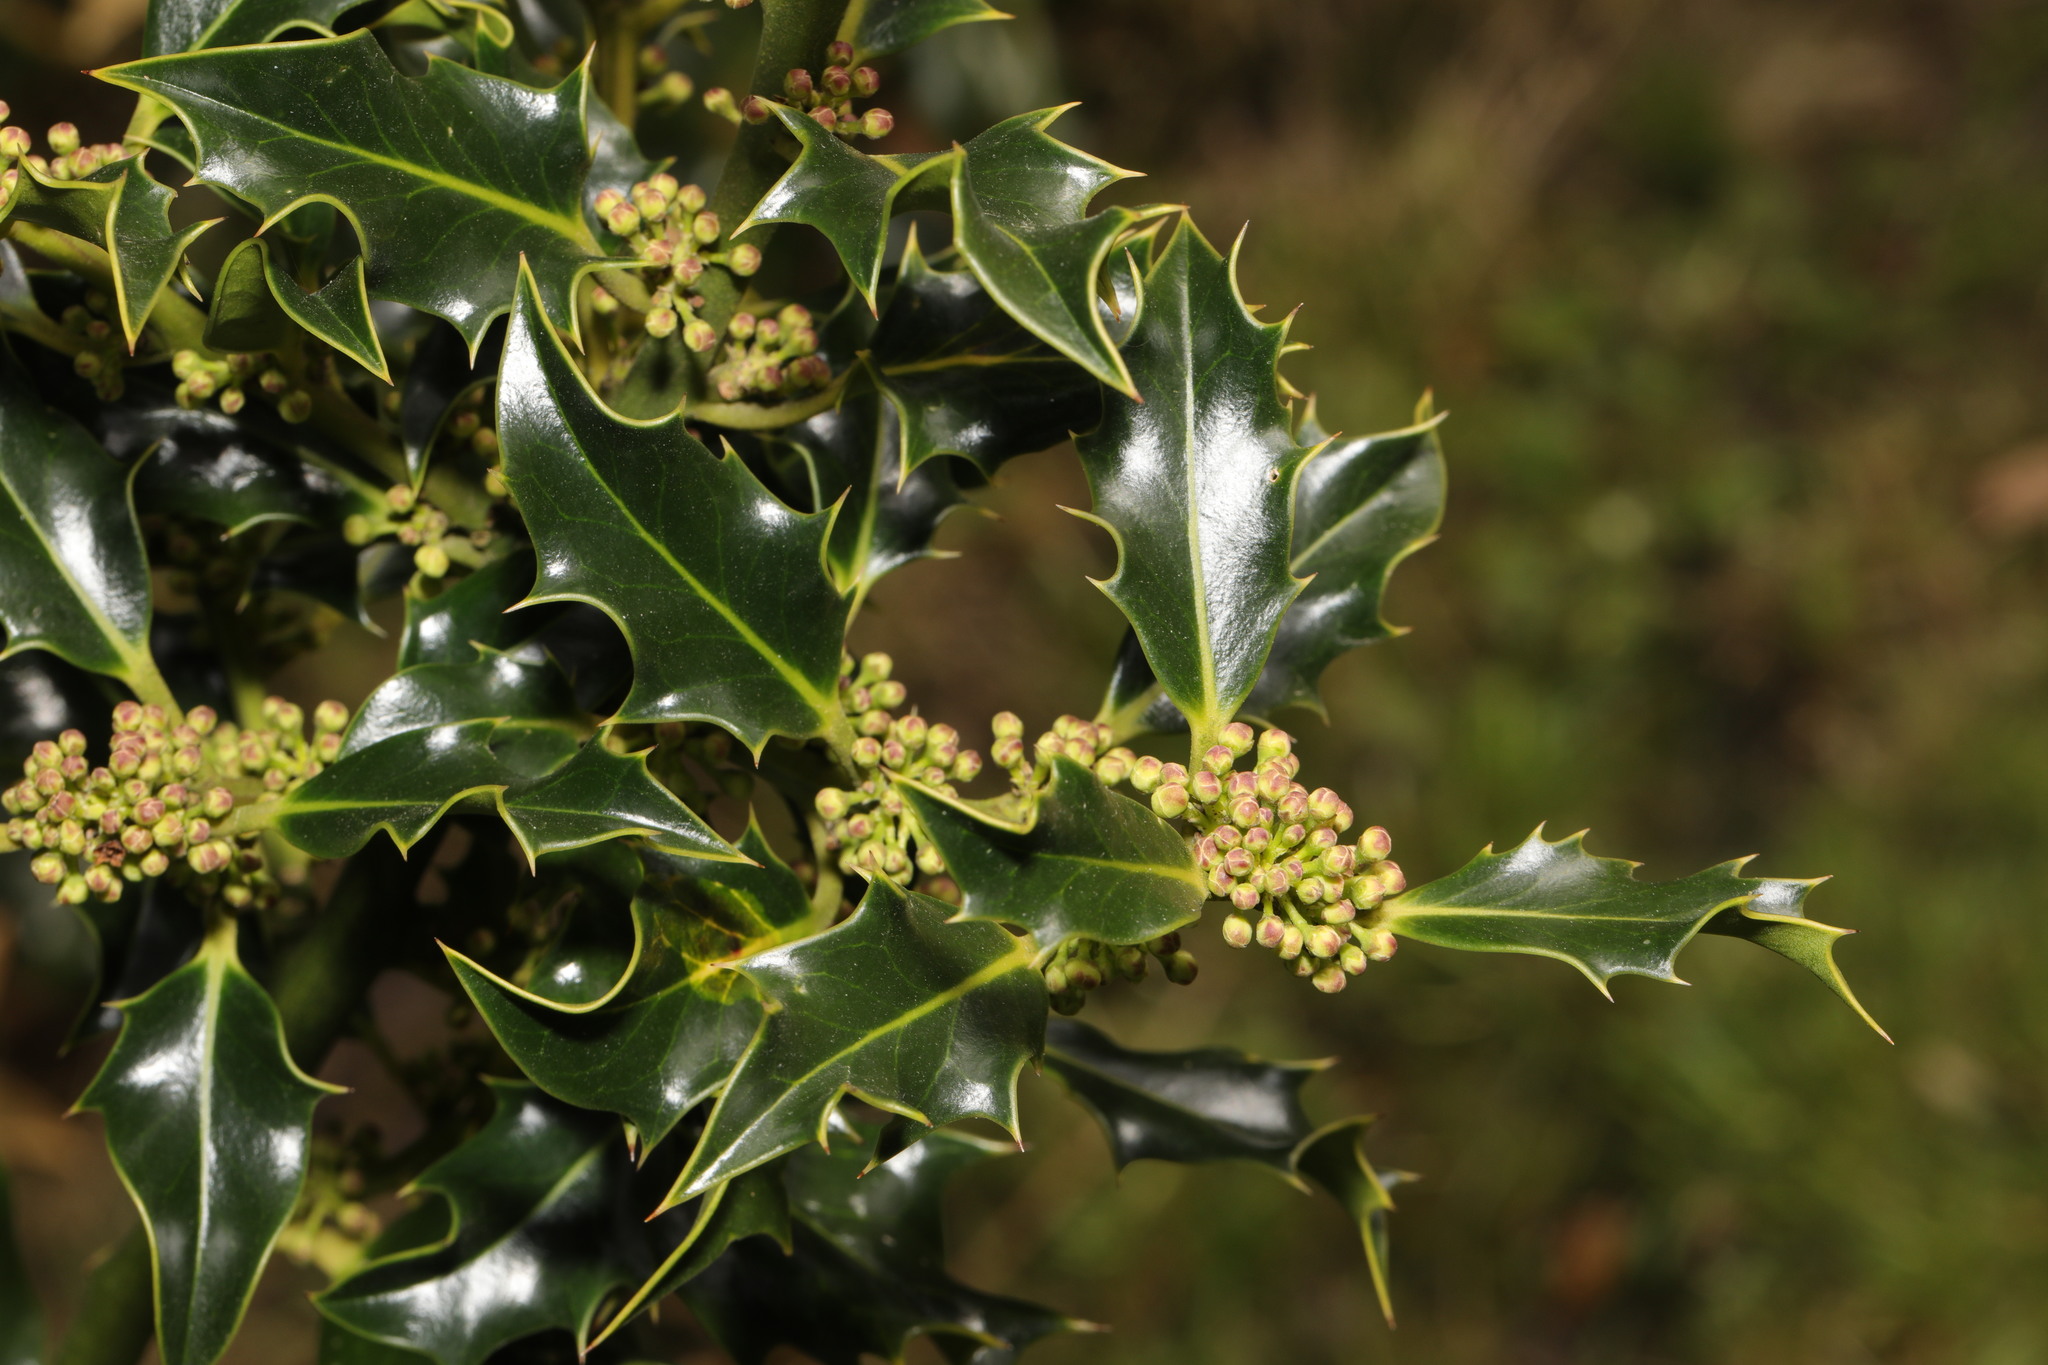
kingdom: Plantae
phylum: Tracheophyta
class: Magnoliopsida
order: Aquifoliales
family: Aquifoliaceae
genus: Ilex
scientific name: Ilex aquifolium
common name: English holly
